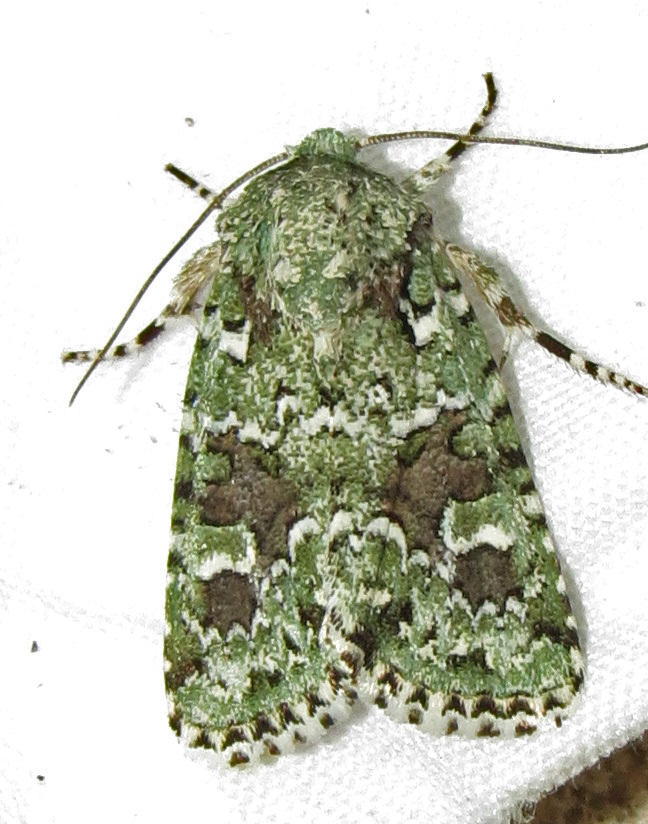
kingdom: Animalia
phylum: Arthropoda
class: Insecta
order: Lepidoptera
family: Noctuidae
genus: Lacinipolia
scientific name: Lacinipolia laudabilis
